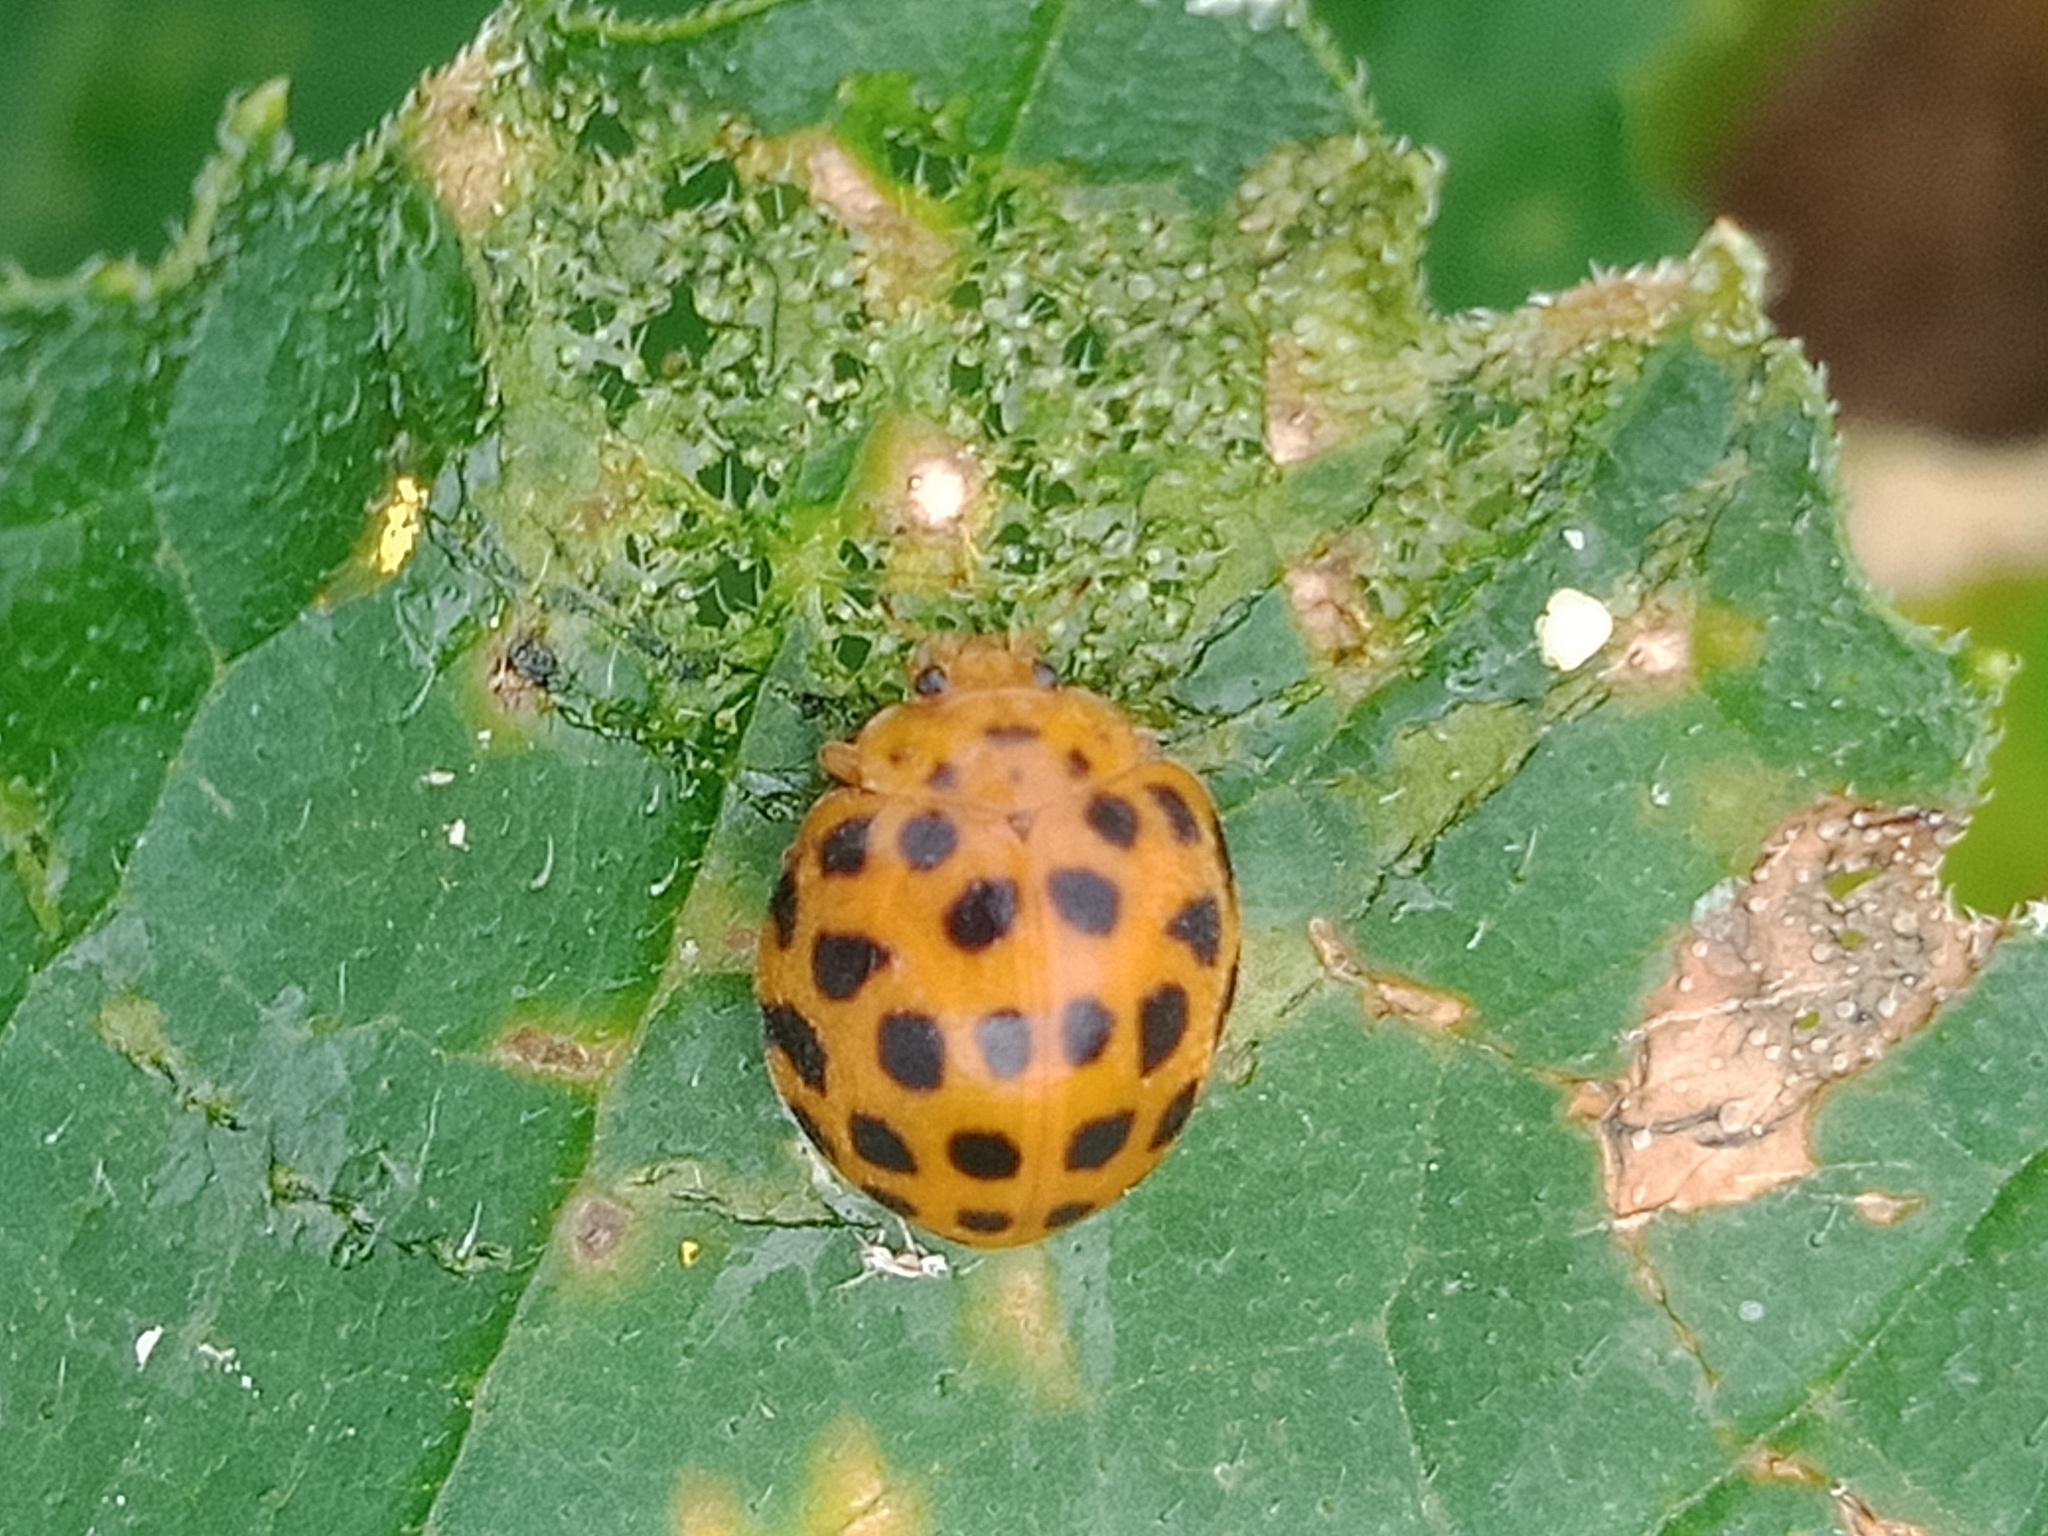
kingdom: Animalia
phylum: Arthropoda
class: Insecta
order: Coleoptera
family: Coccinellidae
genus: Henosepilachna
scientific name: Henosepilachna vigintioctopunctata
